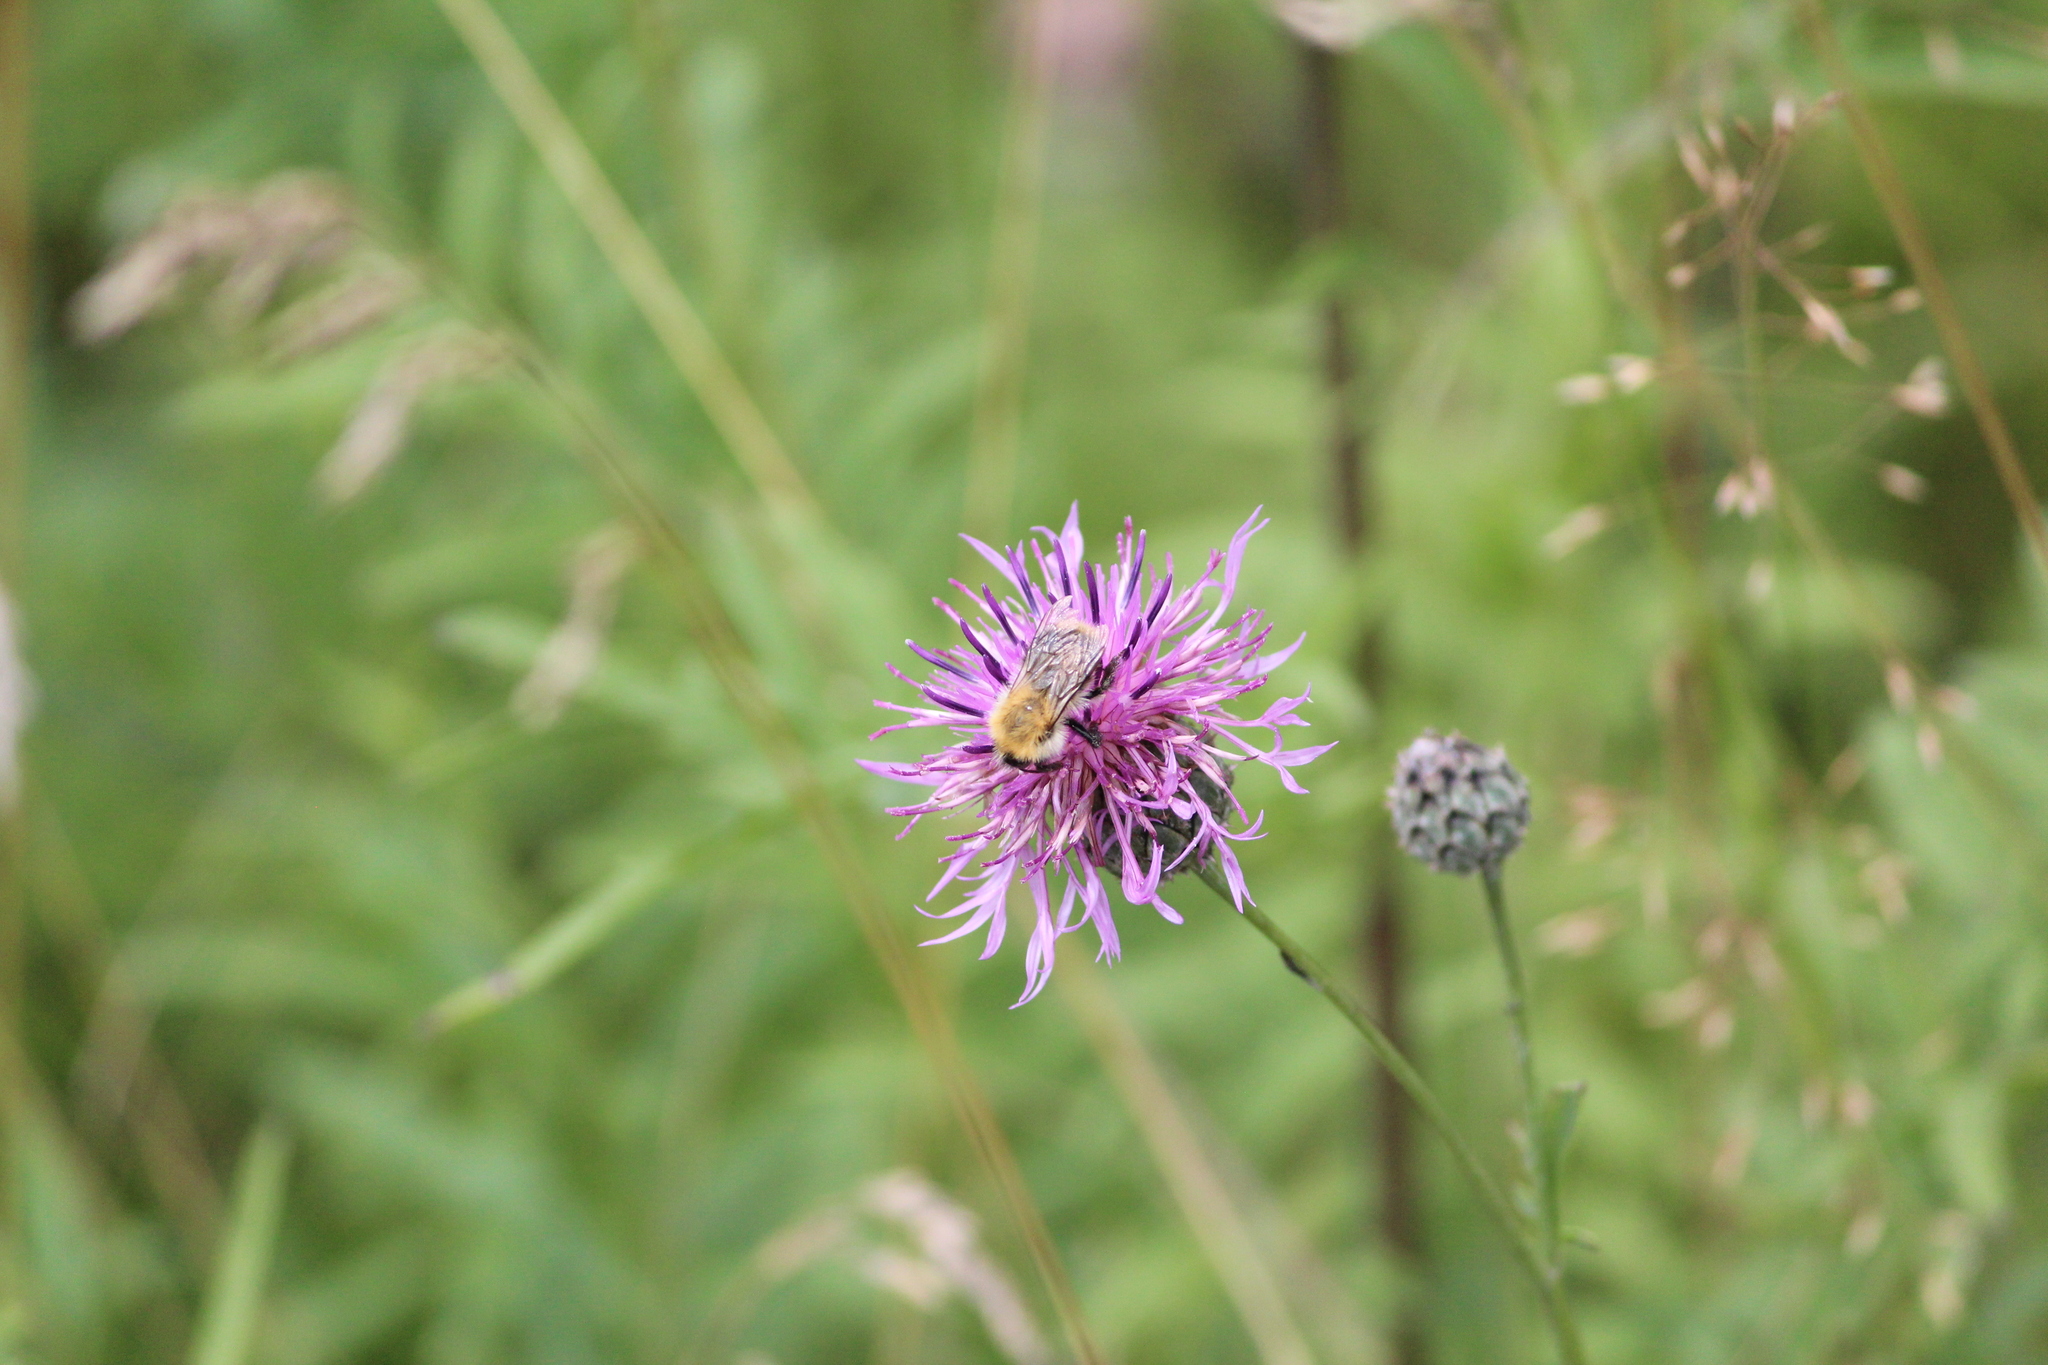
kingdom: Animalia
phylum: Arthropoda
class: Insecta
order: Hymenoptera
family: Apidae
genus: Bombus
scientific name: Bombus pascuorum
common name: Common carder bee
